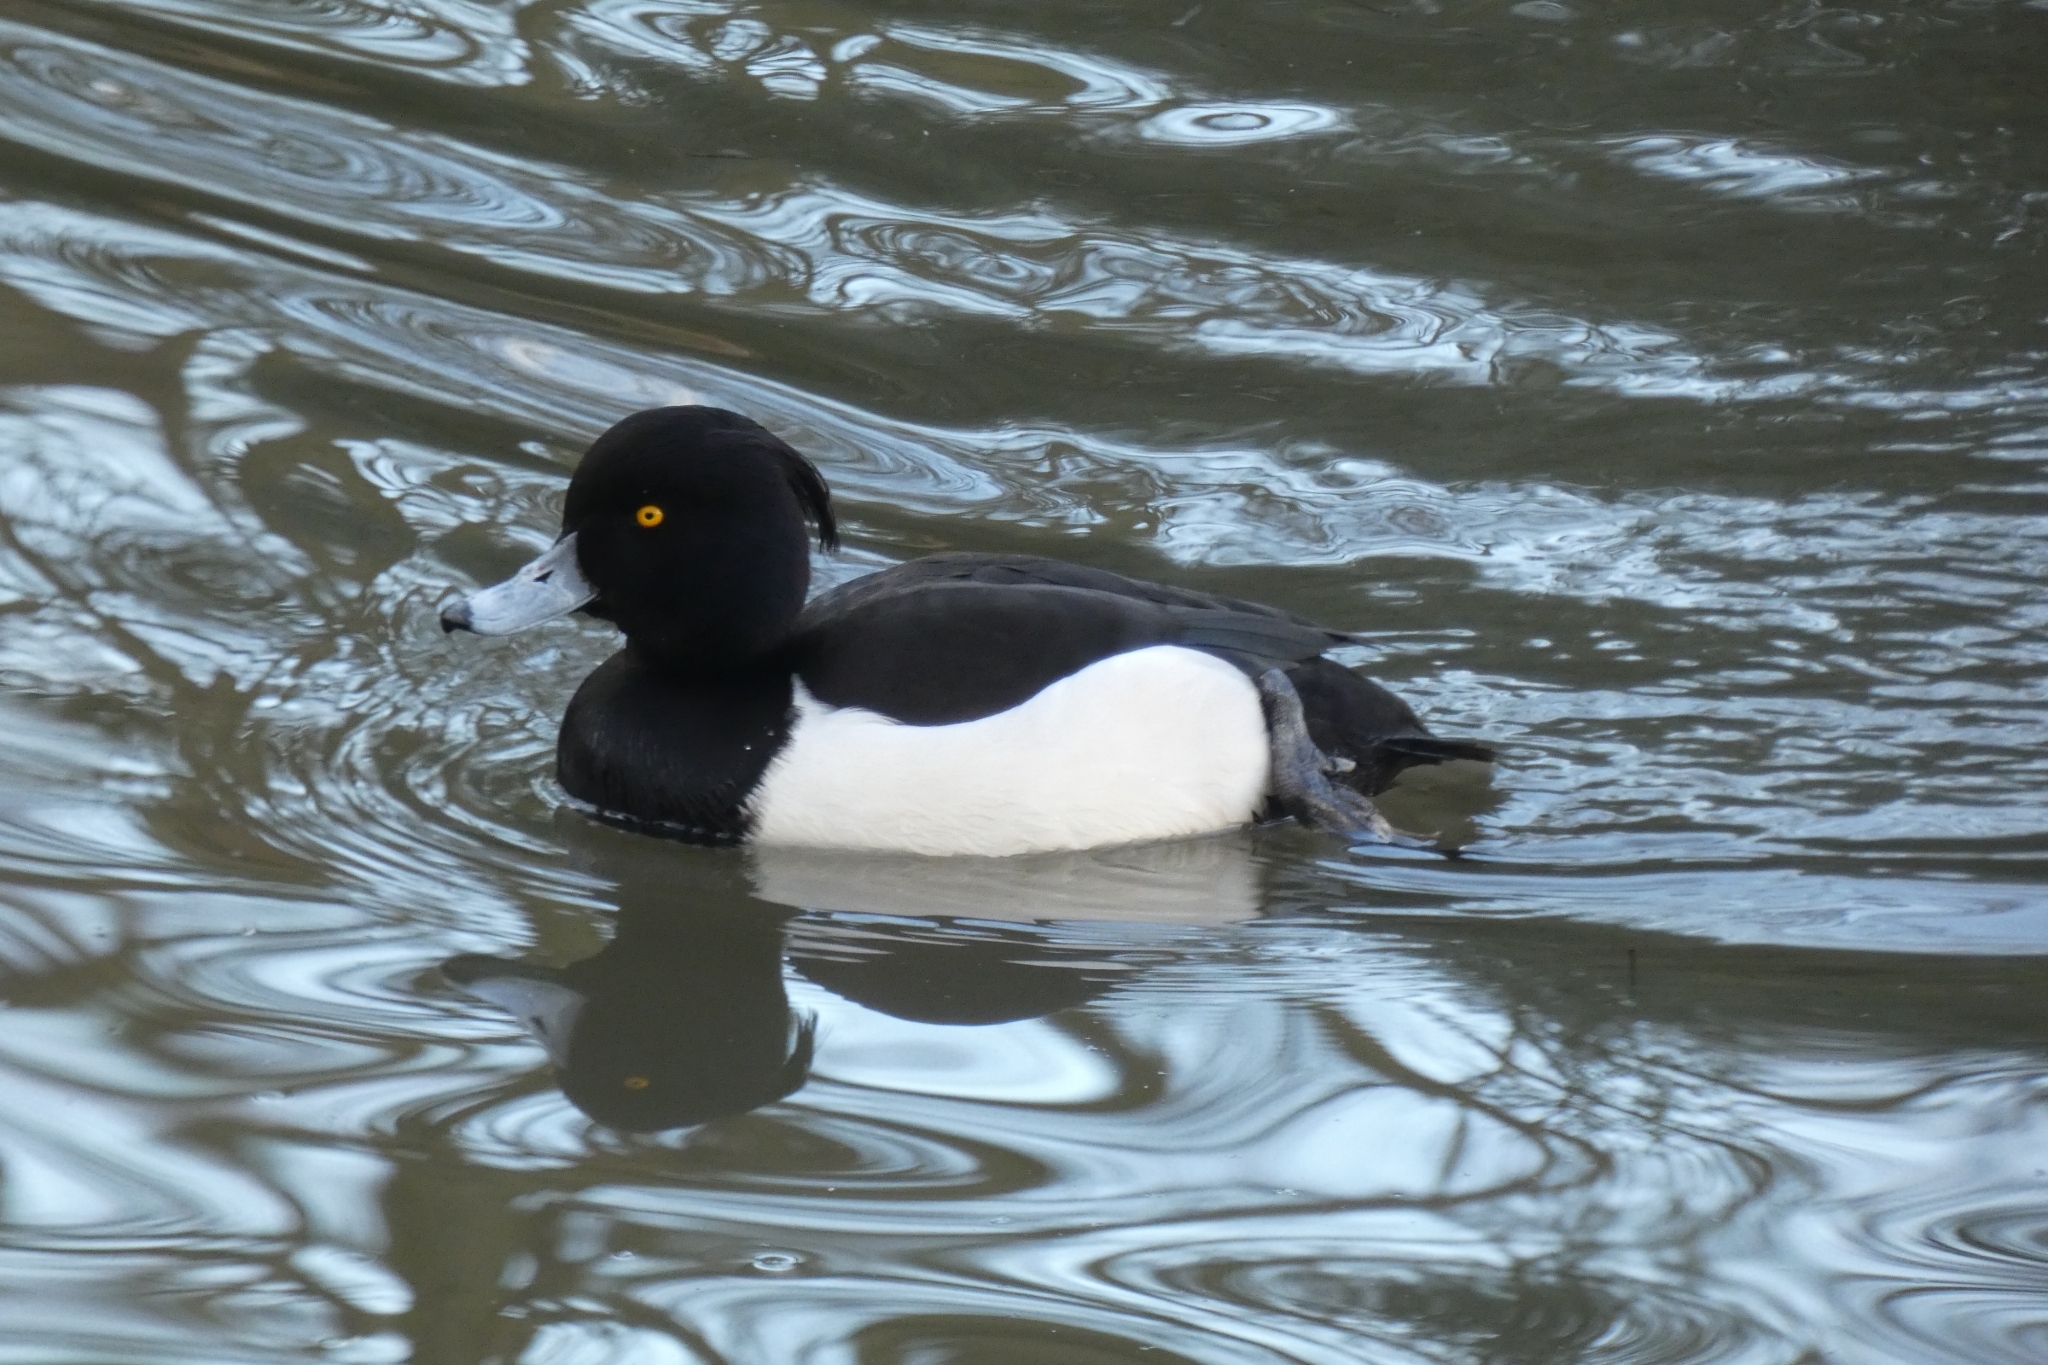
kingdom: Animalia
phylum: Chordata
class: Aves
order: Anseriformes
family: Anatidae
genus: Aythya
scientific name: Aythya fuligula
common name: Tufted duck
